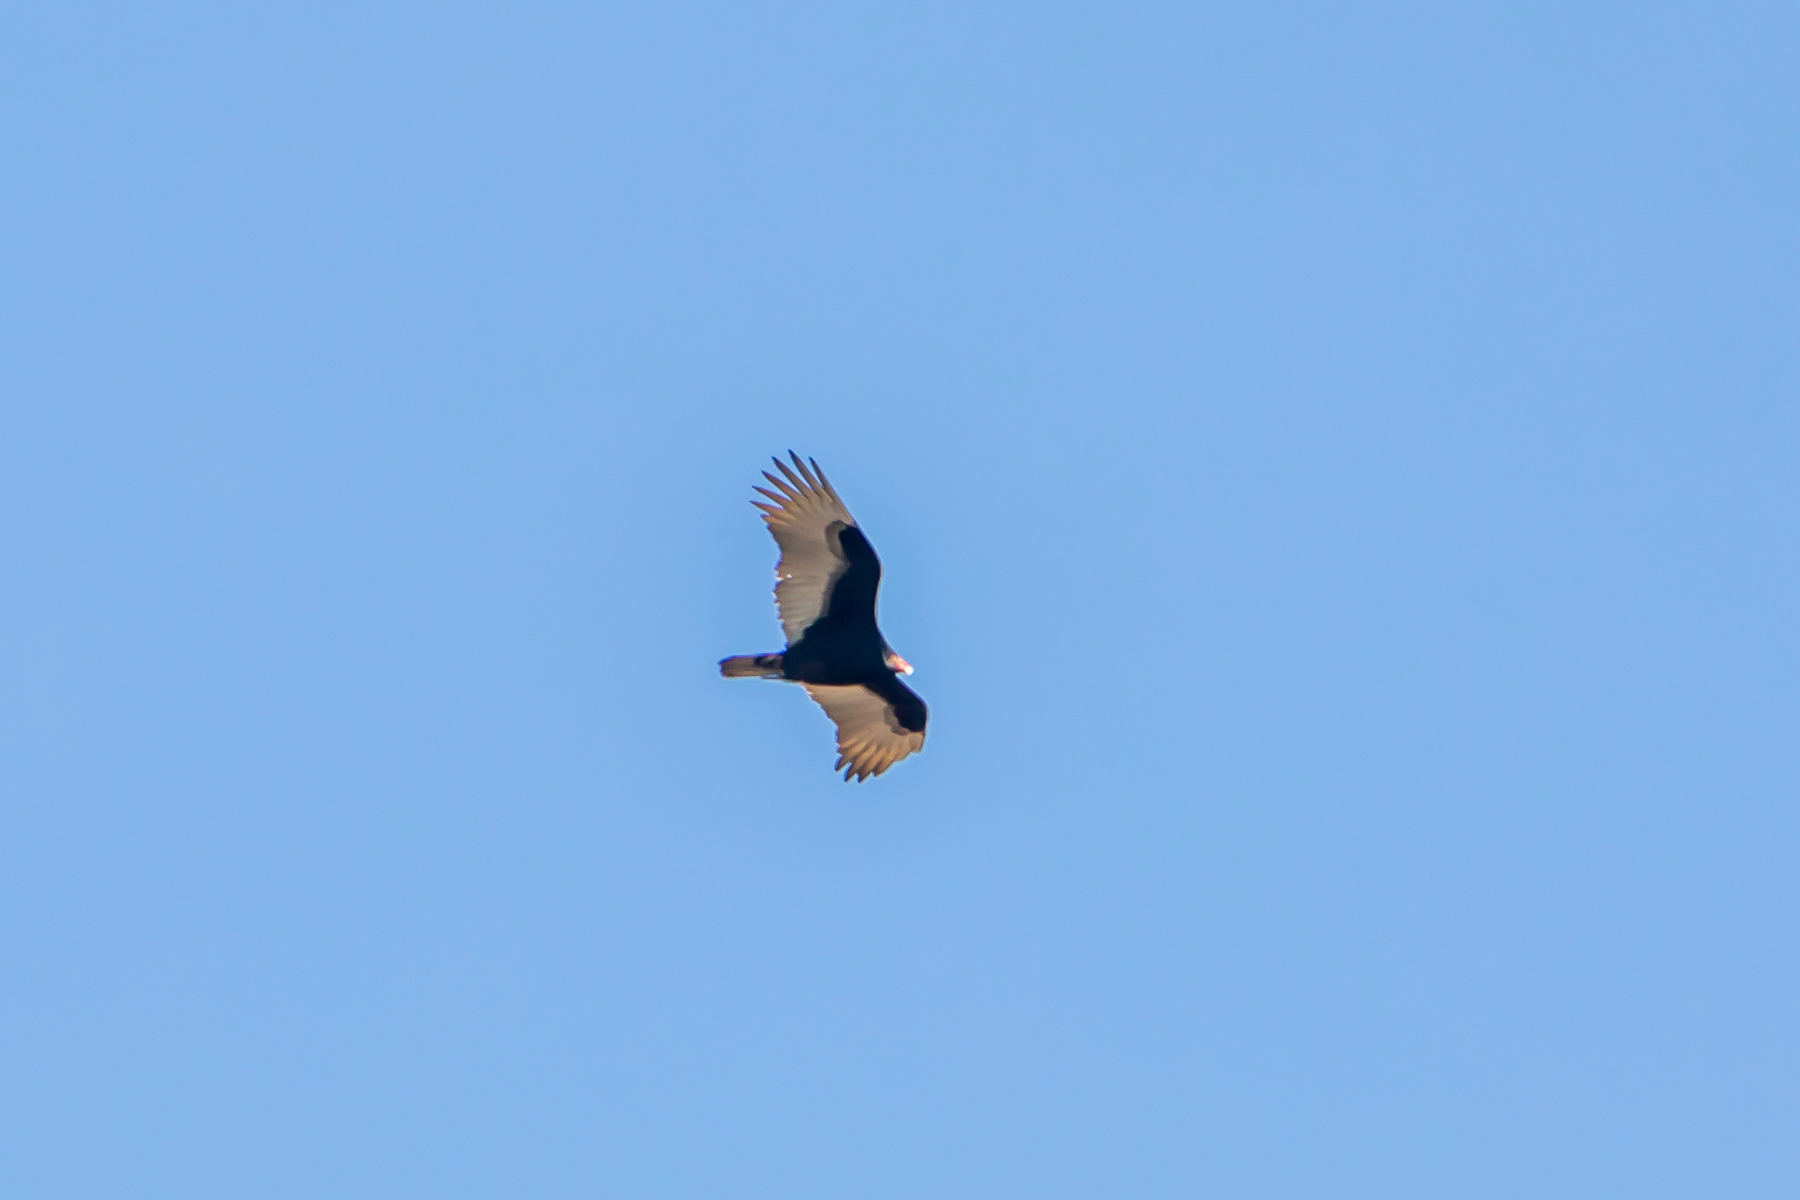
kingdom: Animalia
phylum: Chordata
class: Aves
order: Accipitriformes
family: Cathartidae
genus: Cathartes
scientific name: Cathartes aura
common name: Turkey vulture
